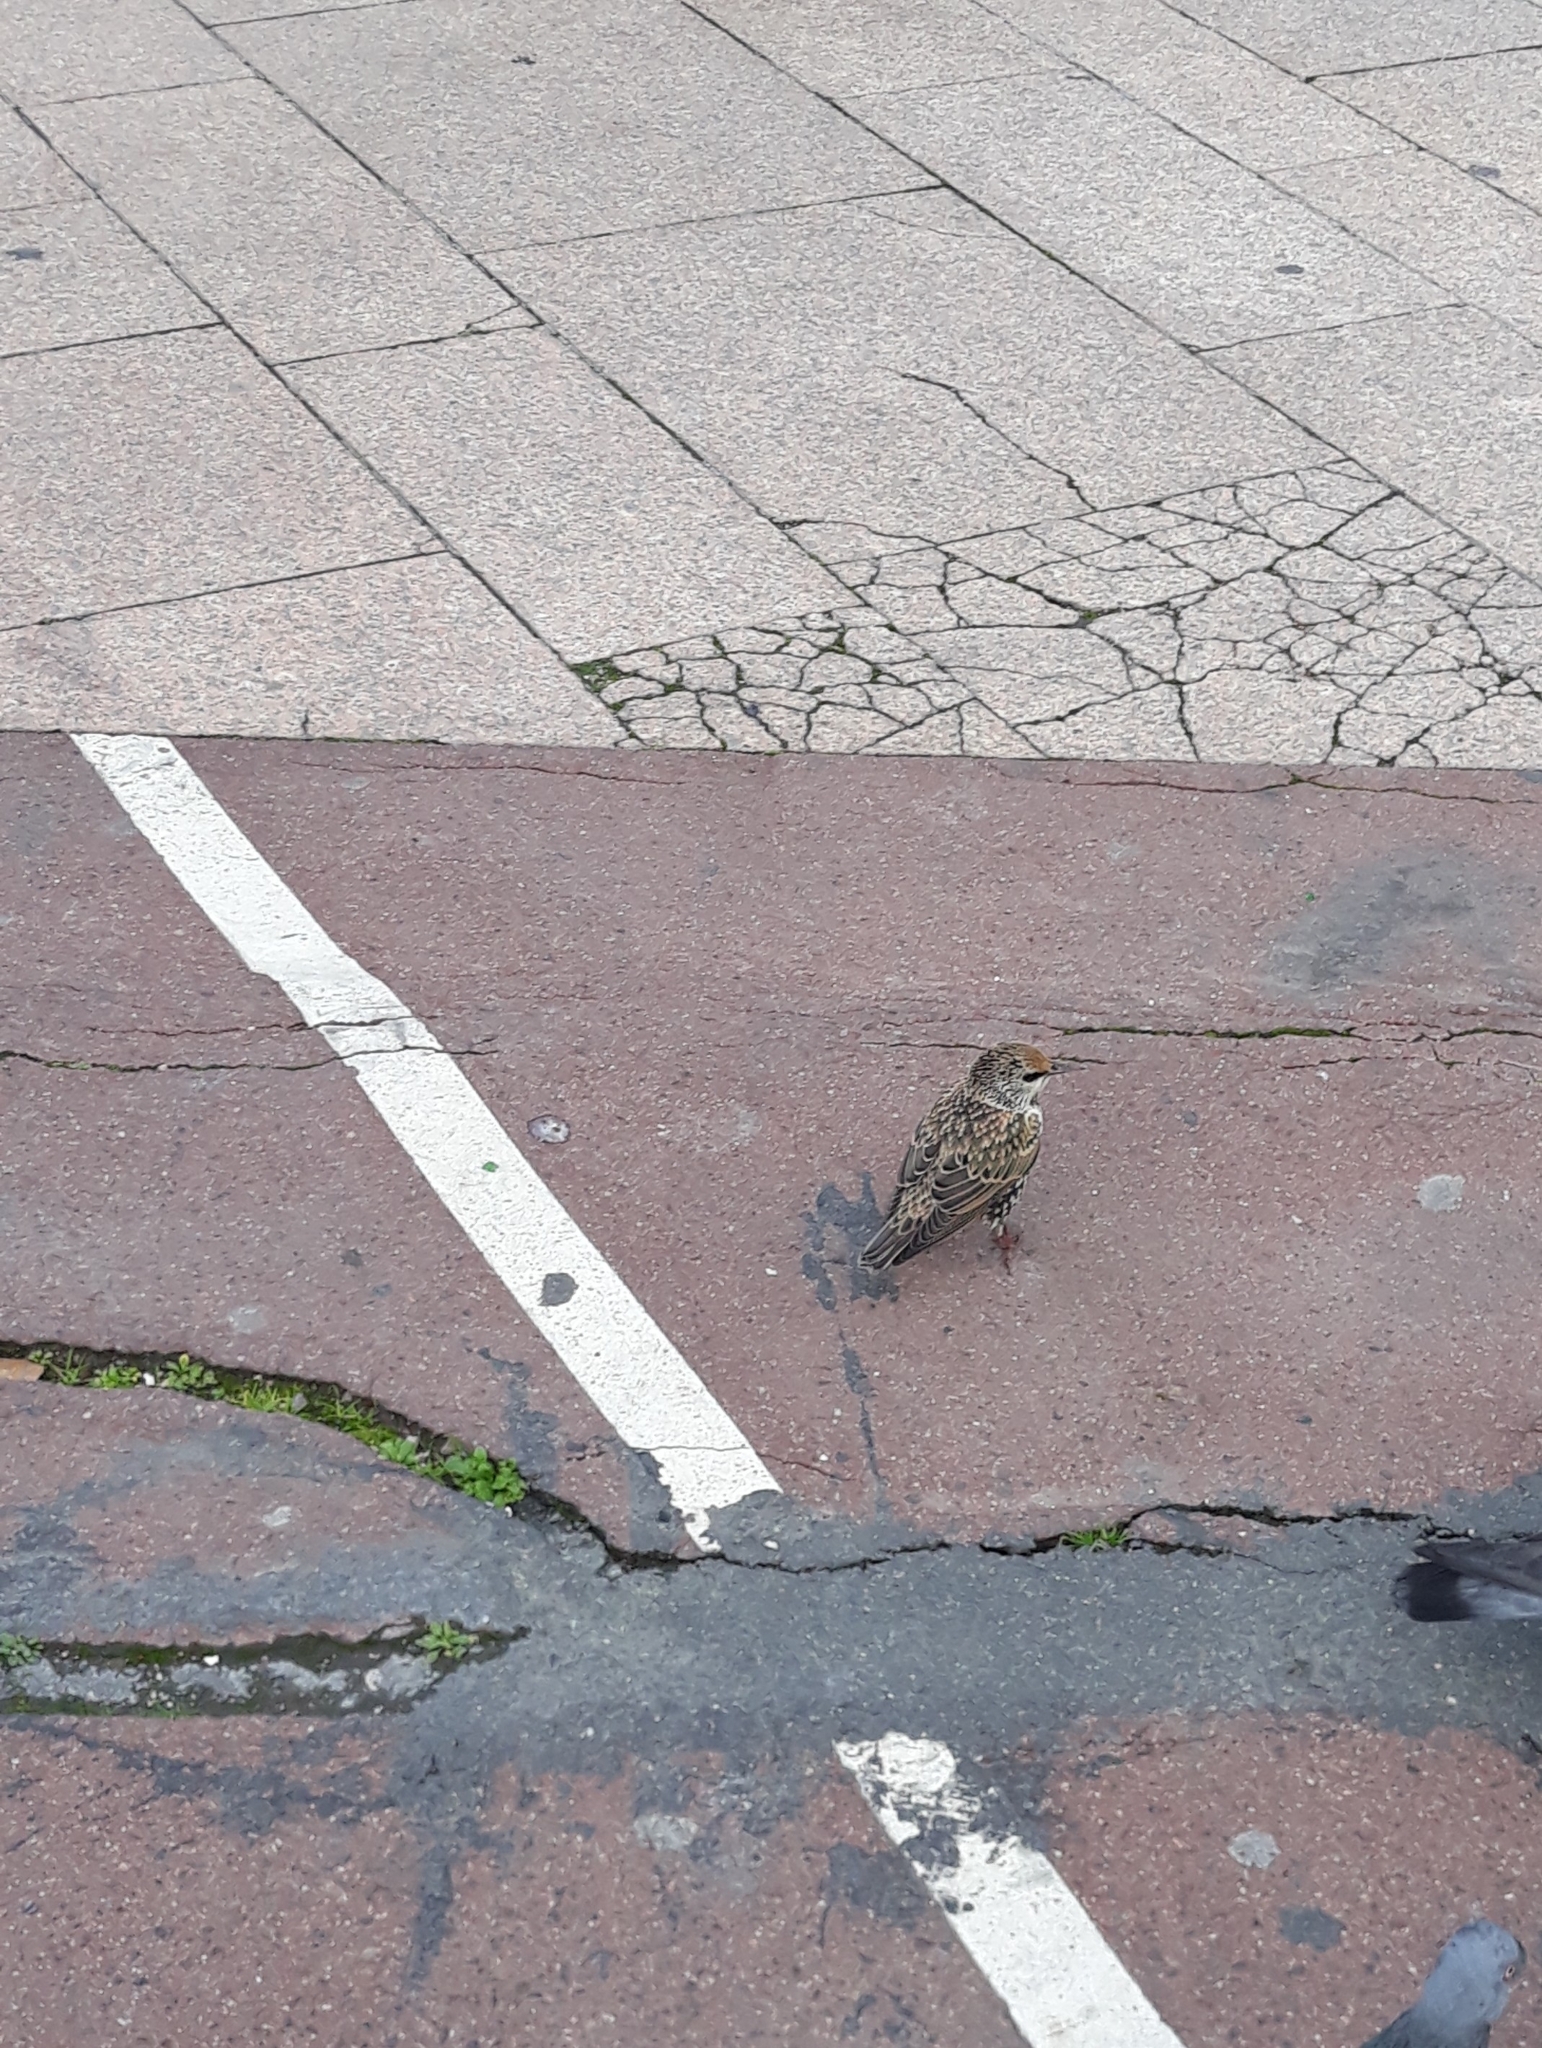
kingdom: Animalia
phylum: Chordata
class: Aves
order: Passeriformes
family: Sturnidae
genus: Sturnus
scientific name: Sturnus vulgaris
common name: Common starling
